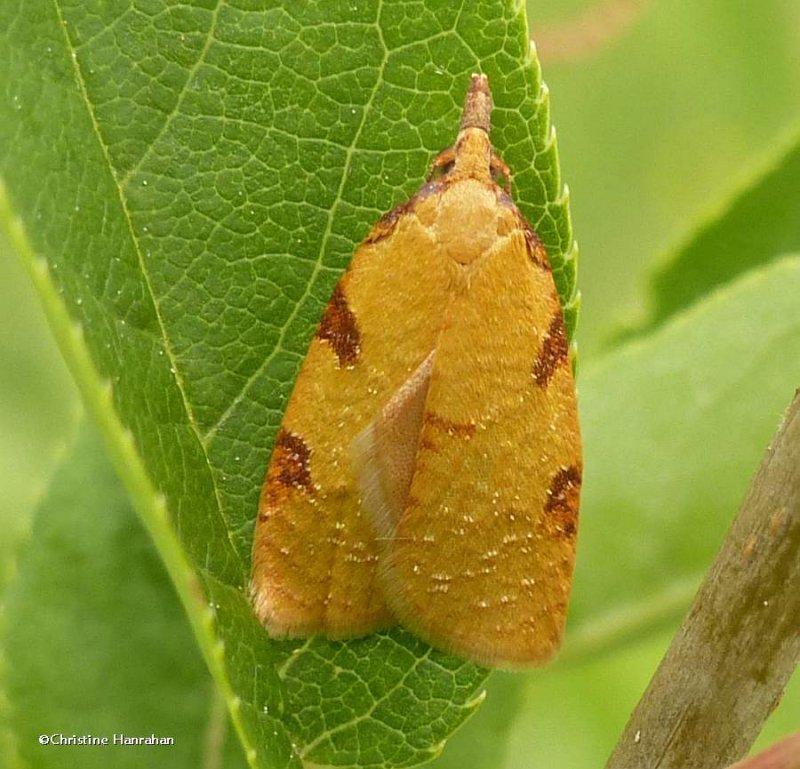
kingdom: Animalia
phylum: Arthropoda
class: Insecta
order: Lepidoptera
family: Tortricidae
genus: Cenopis
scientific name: Cenopis directana
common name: Chokecherry leafroller moth
